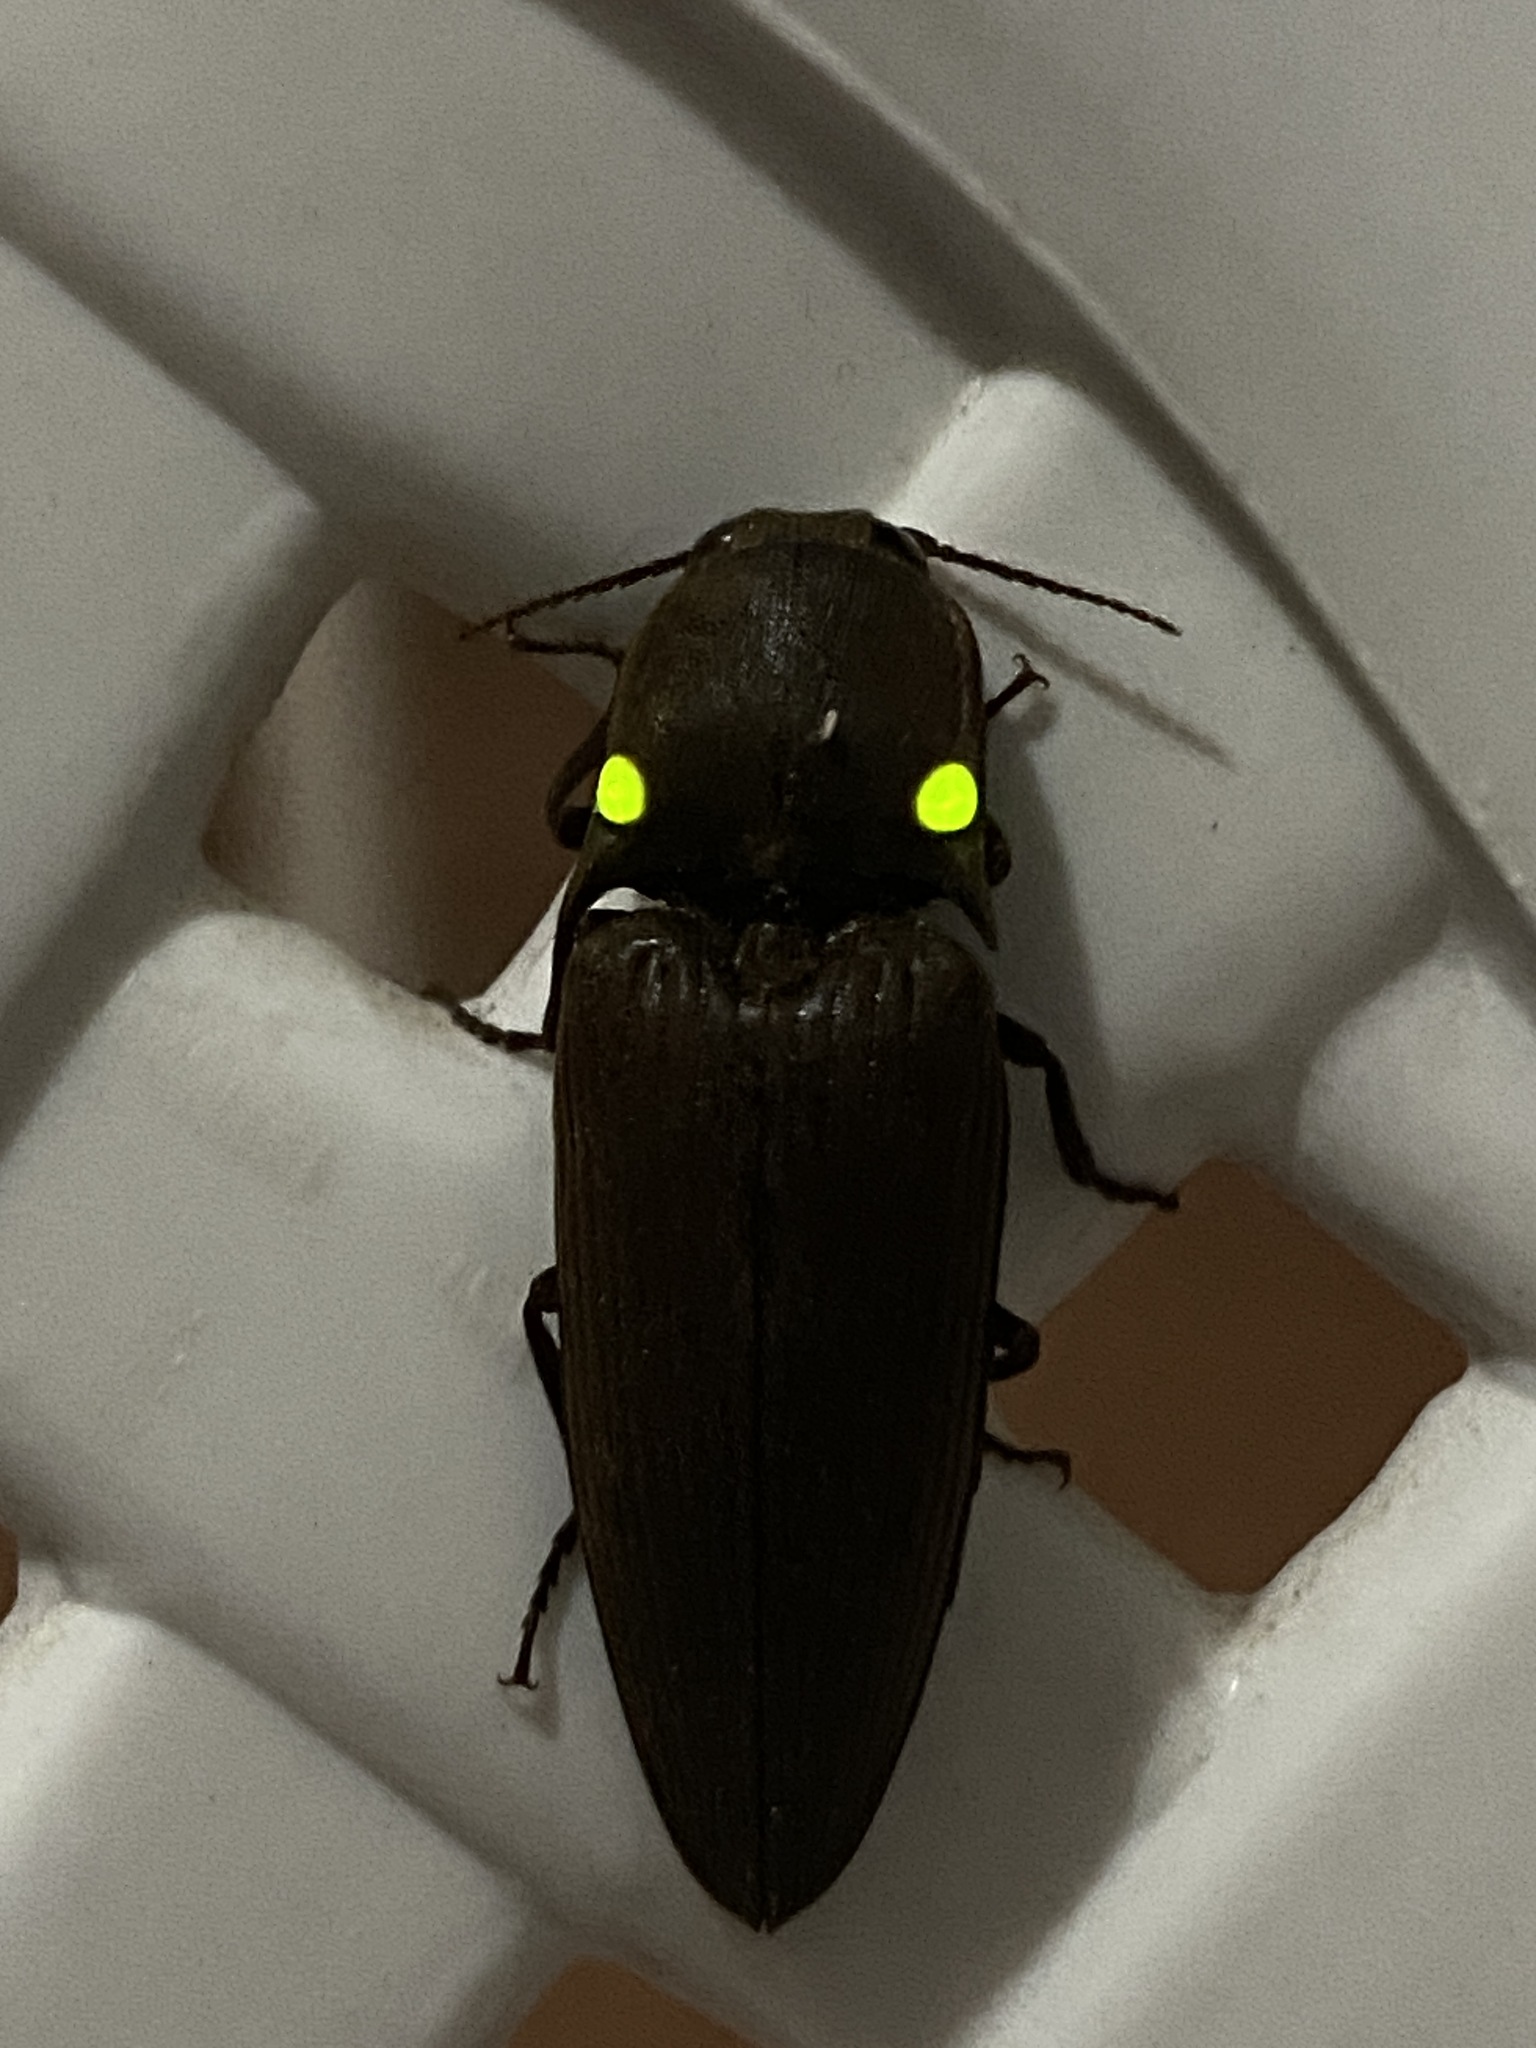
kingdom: Animalia
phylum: Arthropoda
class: Insecta
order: Coleoptera
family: Elateridae
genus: Pyrophorus
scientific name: Pyrophorus
